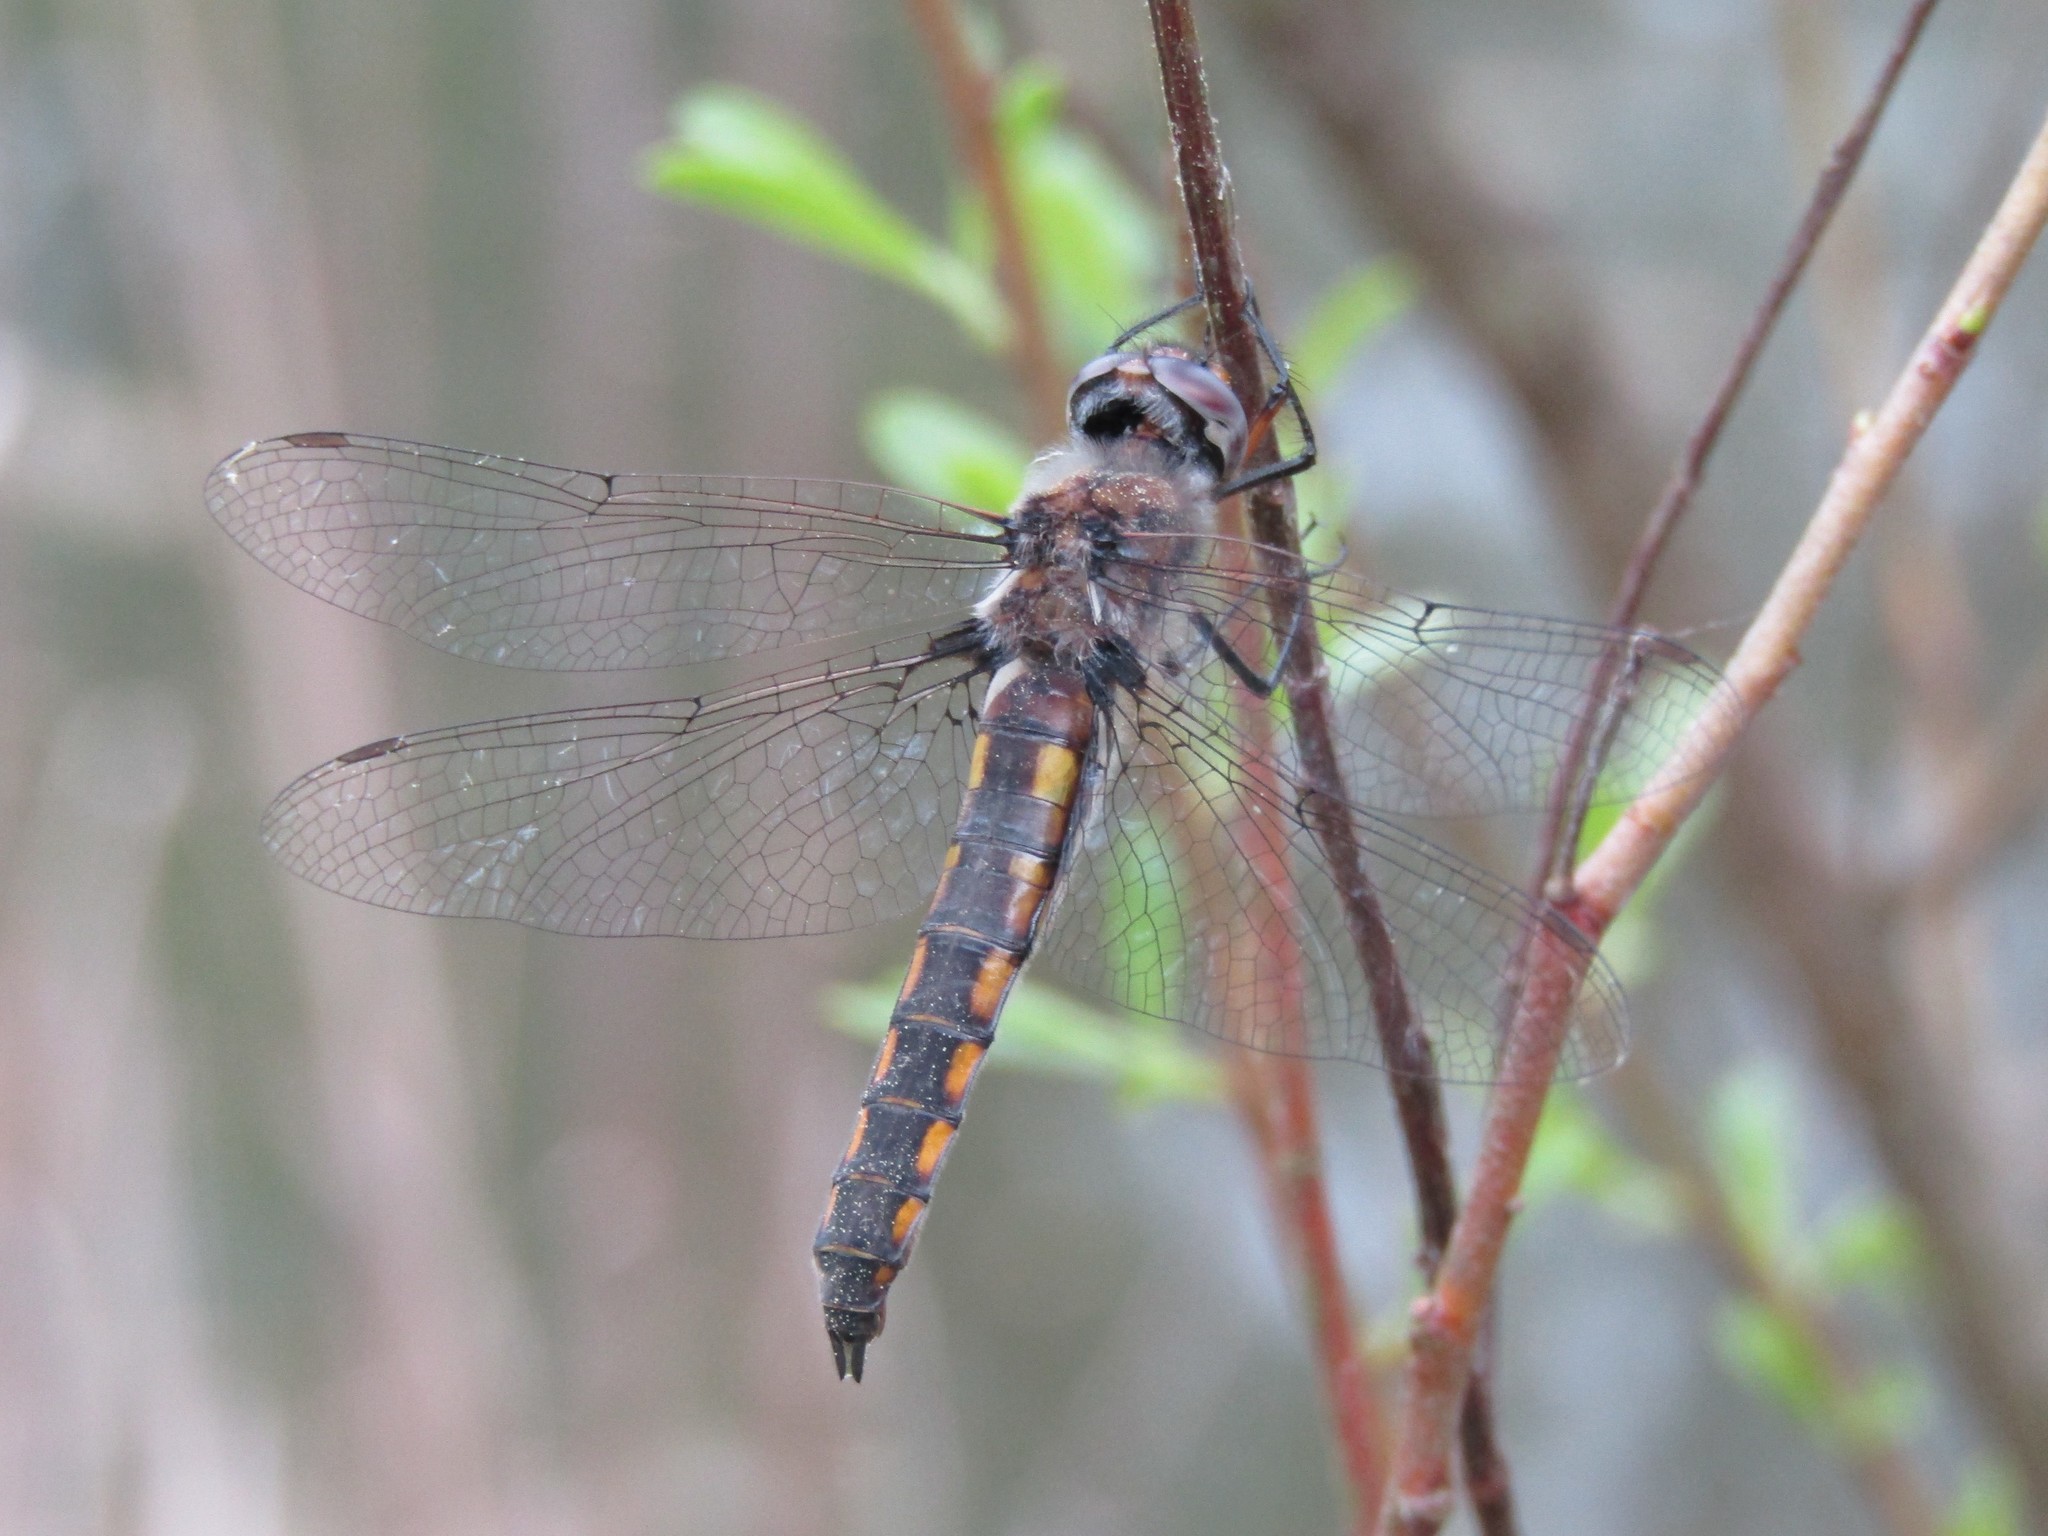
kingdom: Animalia
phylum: Arthropoda
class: Insecta
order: Odonata
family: Corduliidae
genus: Epitheca
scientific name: Epitheca cynosura
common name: Common baskettail
